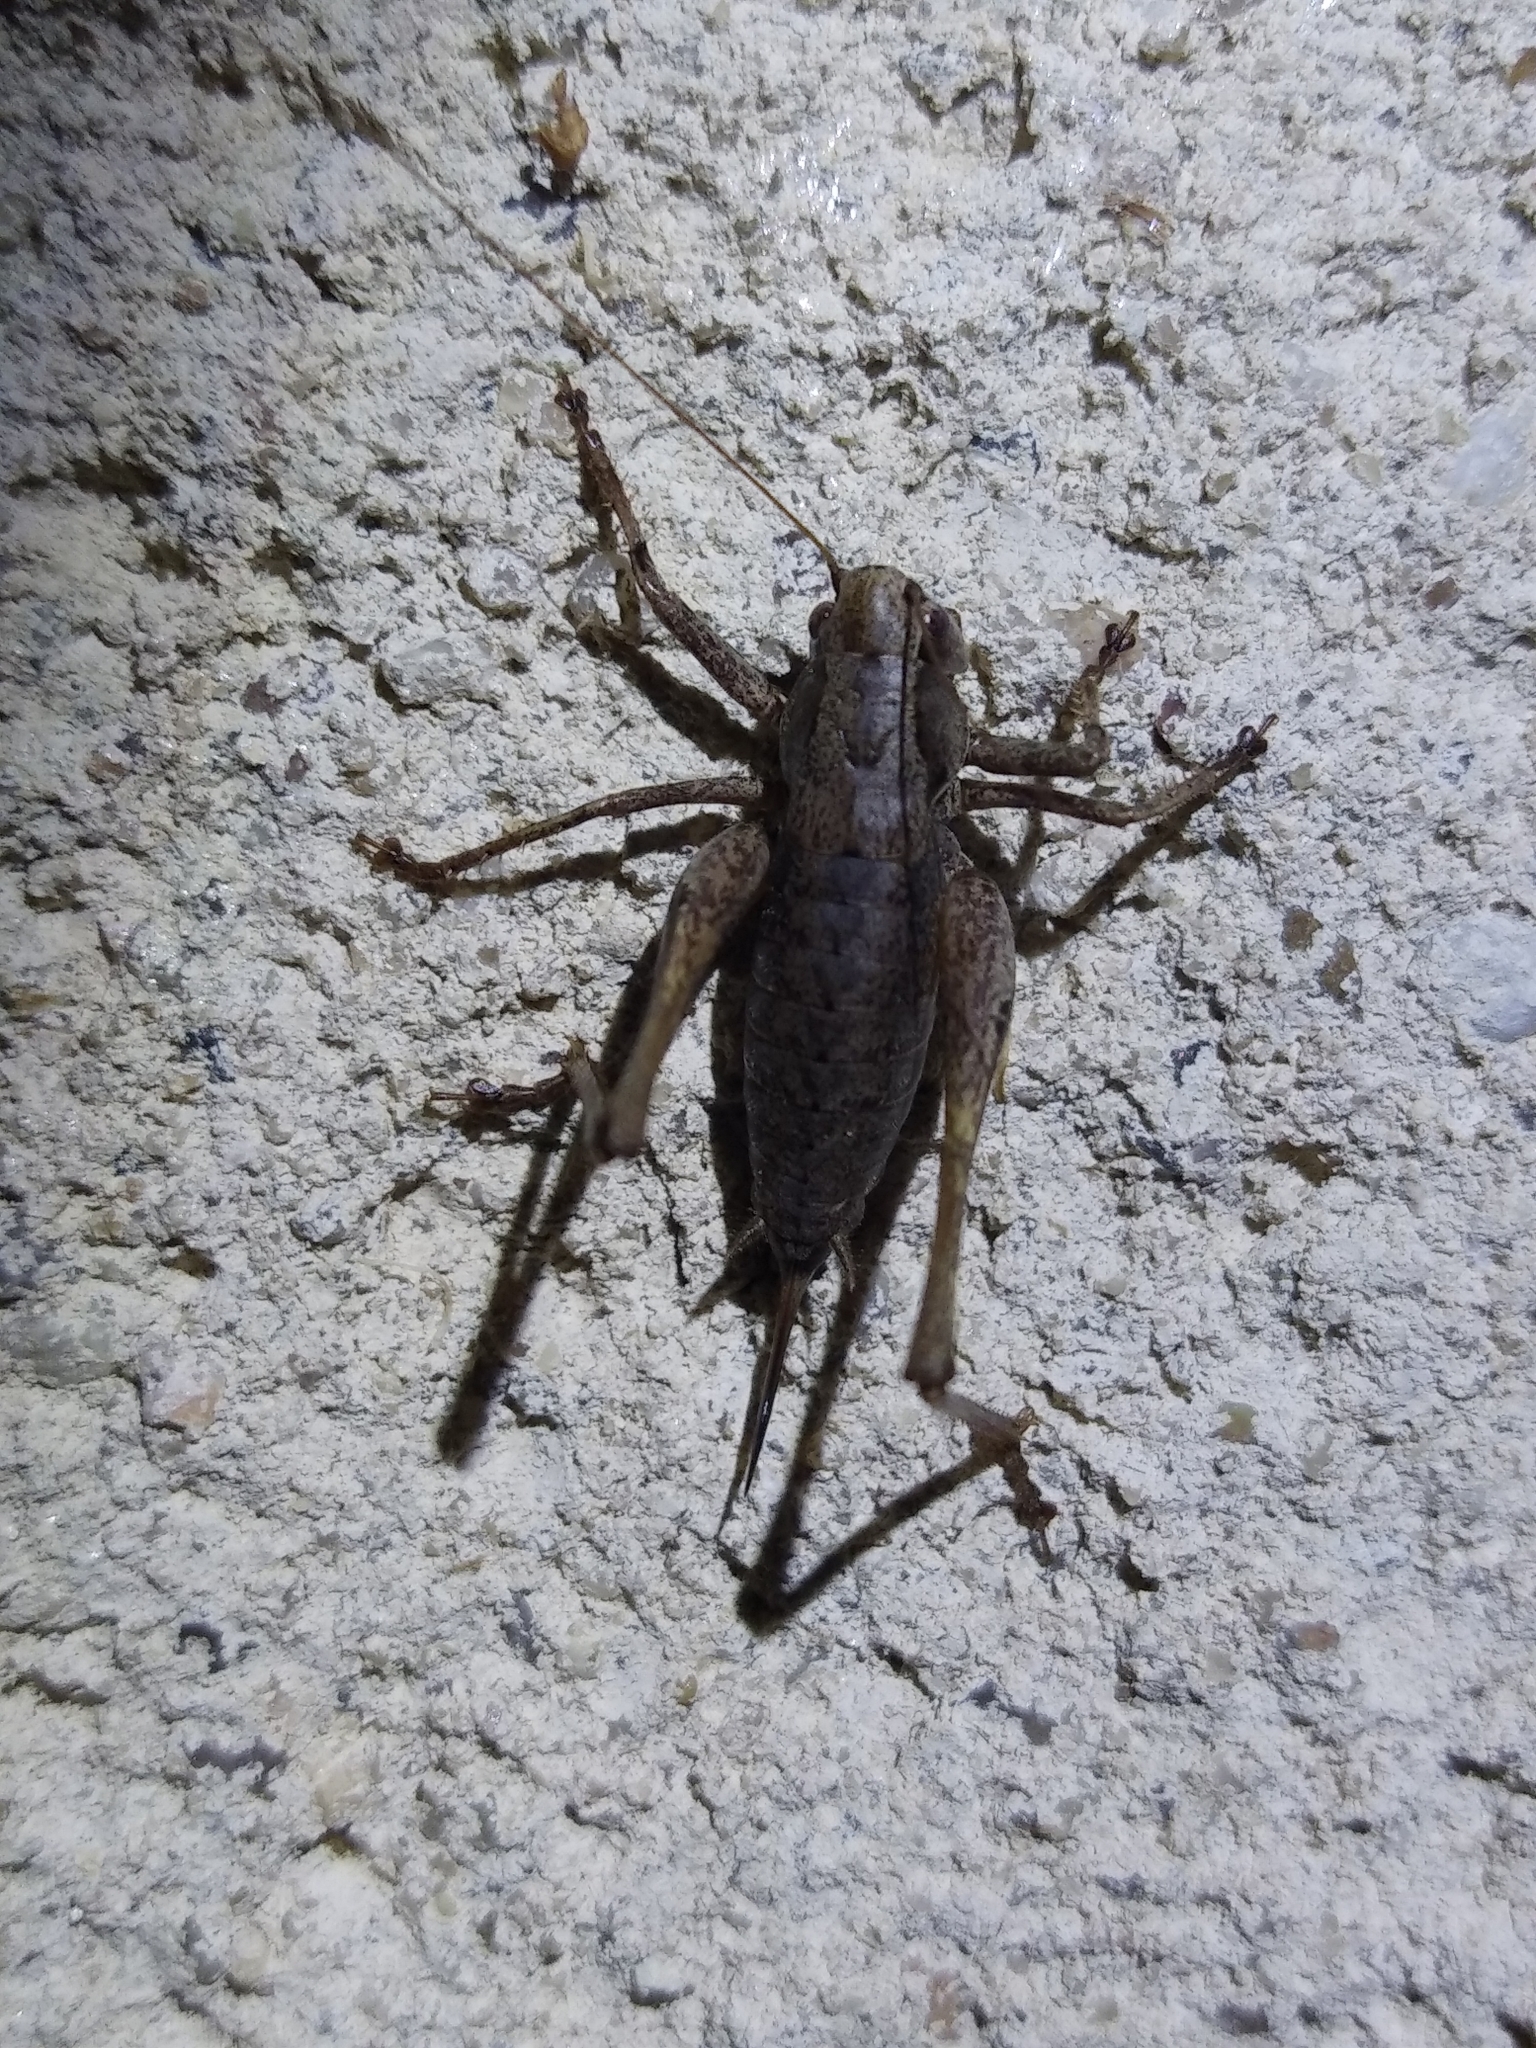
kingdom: Animalia
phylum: Arthropoda
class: Insecta
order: Orthoptera
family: Tettigoniidae
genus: Pholidoptera
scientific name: Pholidoptera griseoaptera
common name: Dark bush-cricket
